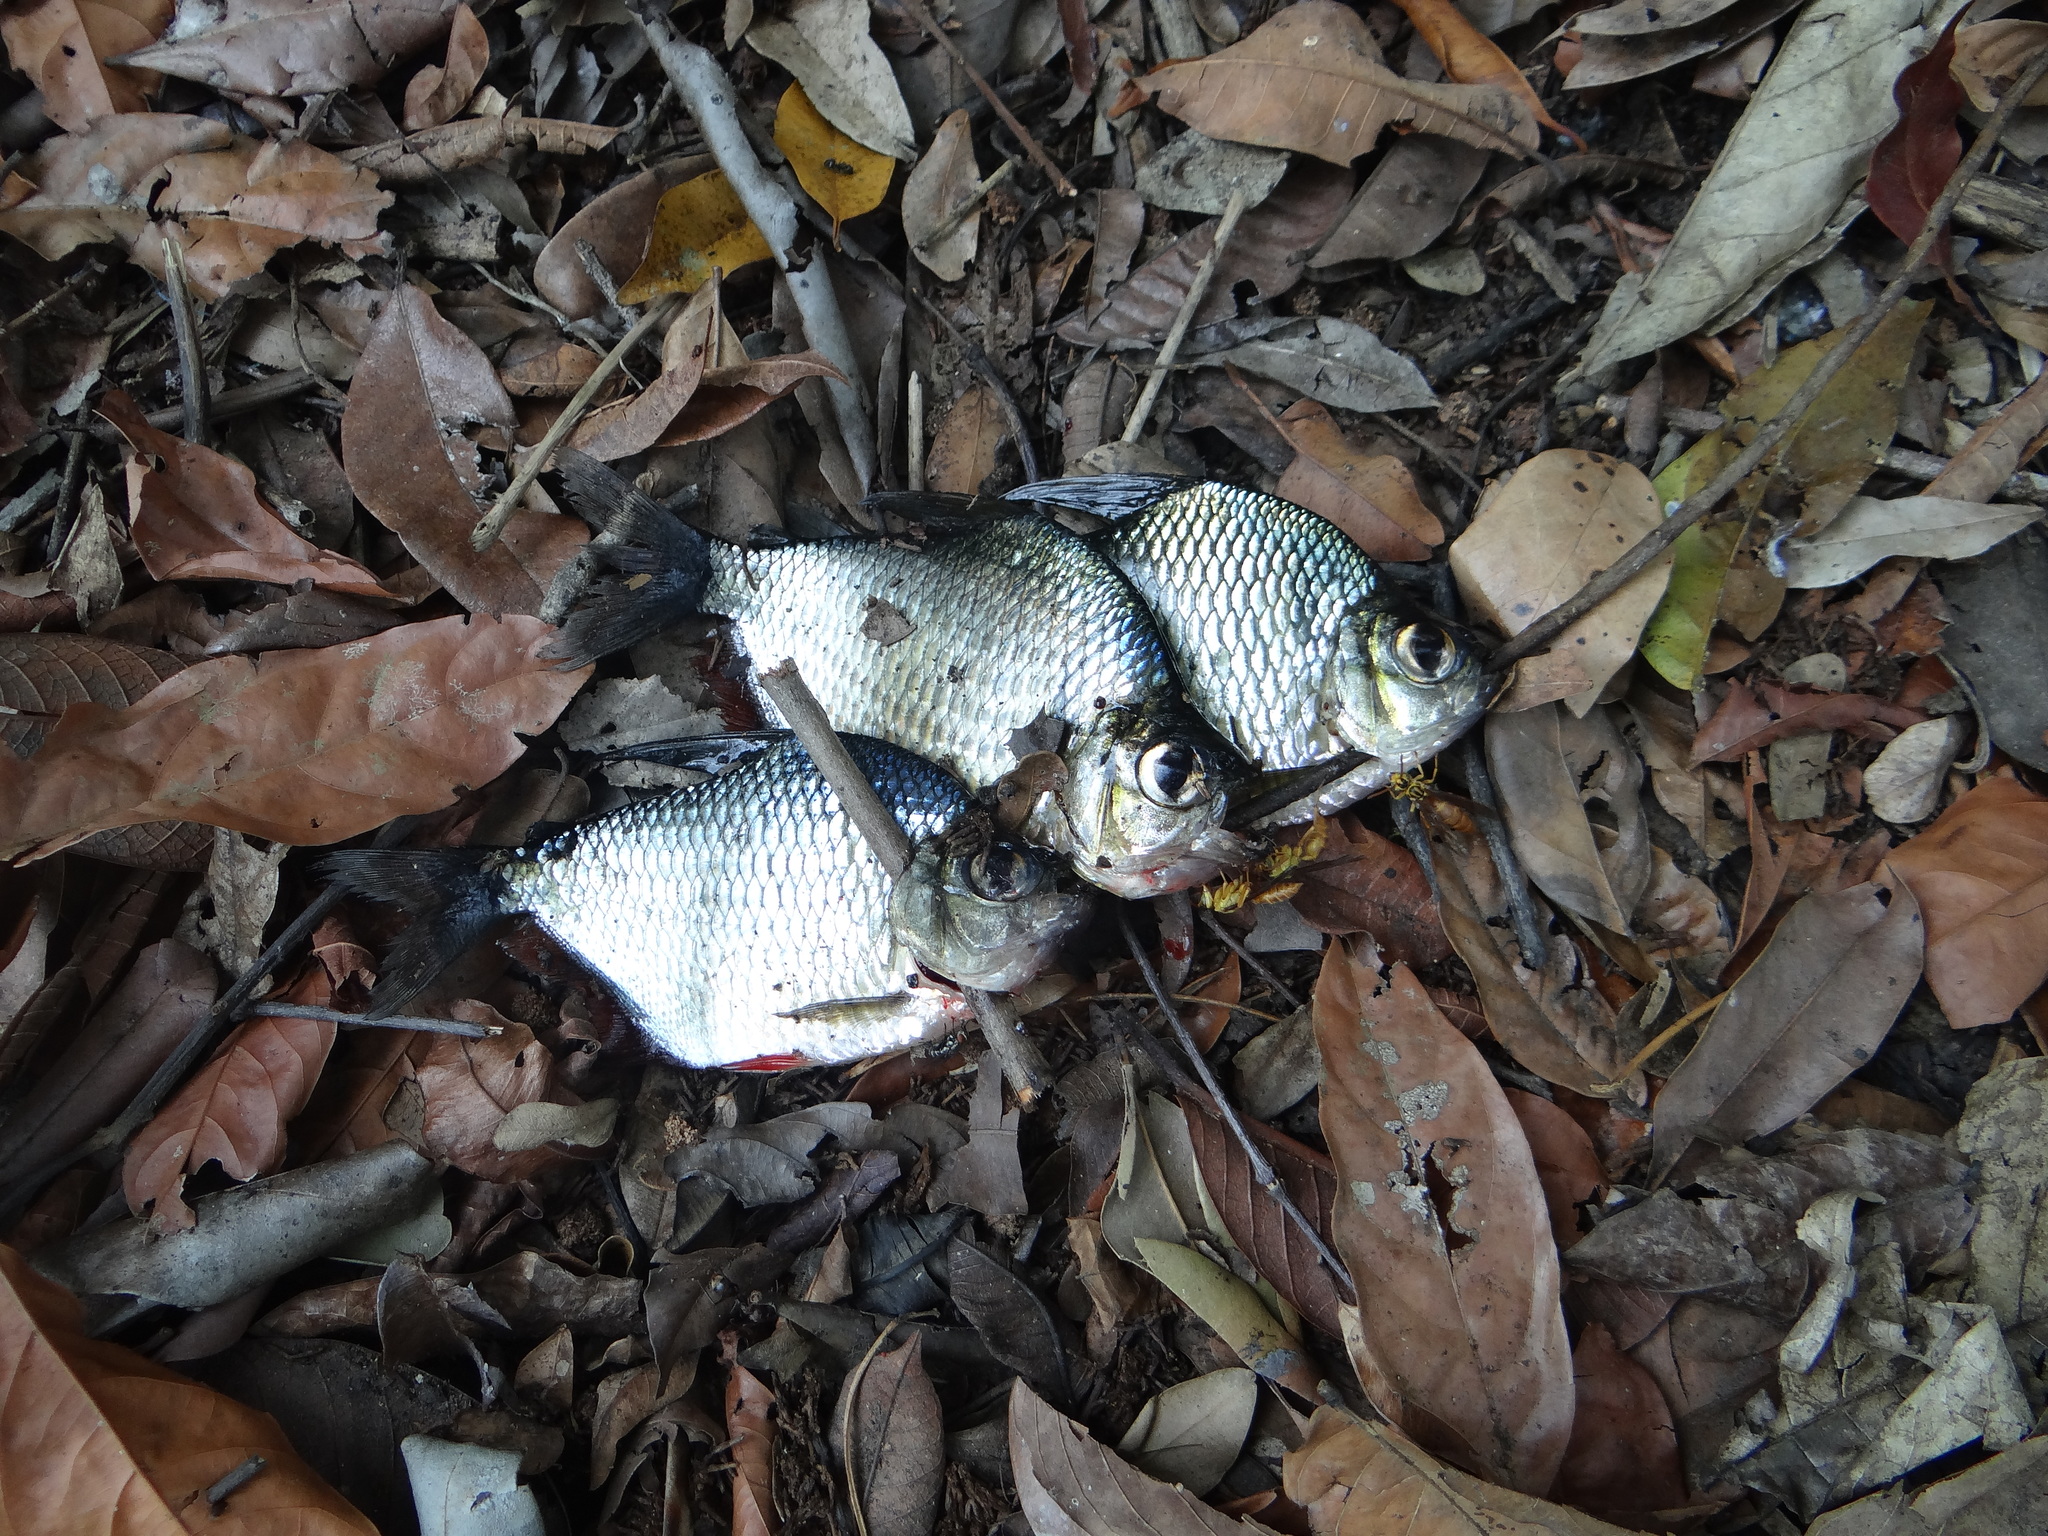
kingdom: Animalia
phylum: Chordata
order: Characiformes
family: Characidae
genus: Tetragonopterus
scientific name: Tetragonopterus argenteus
